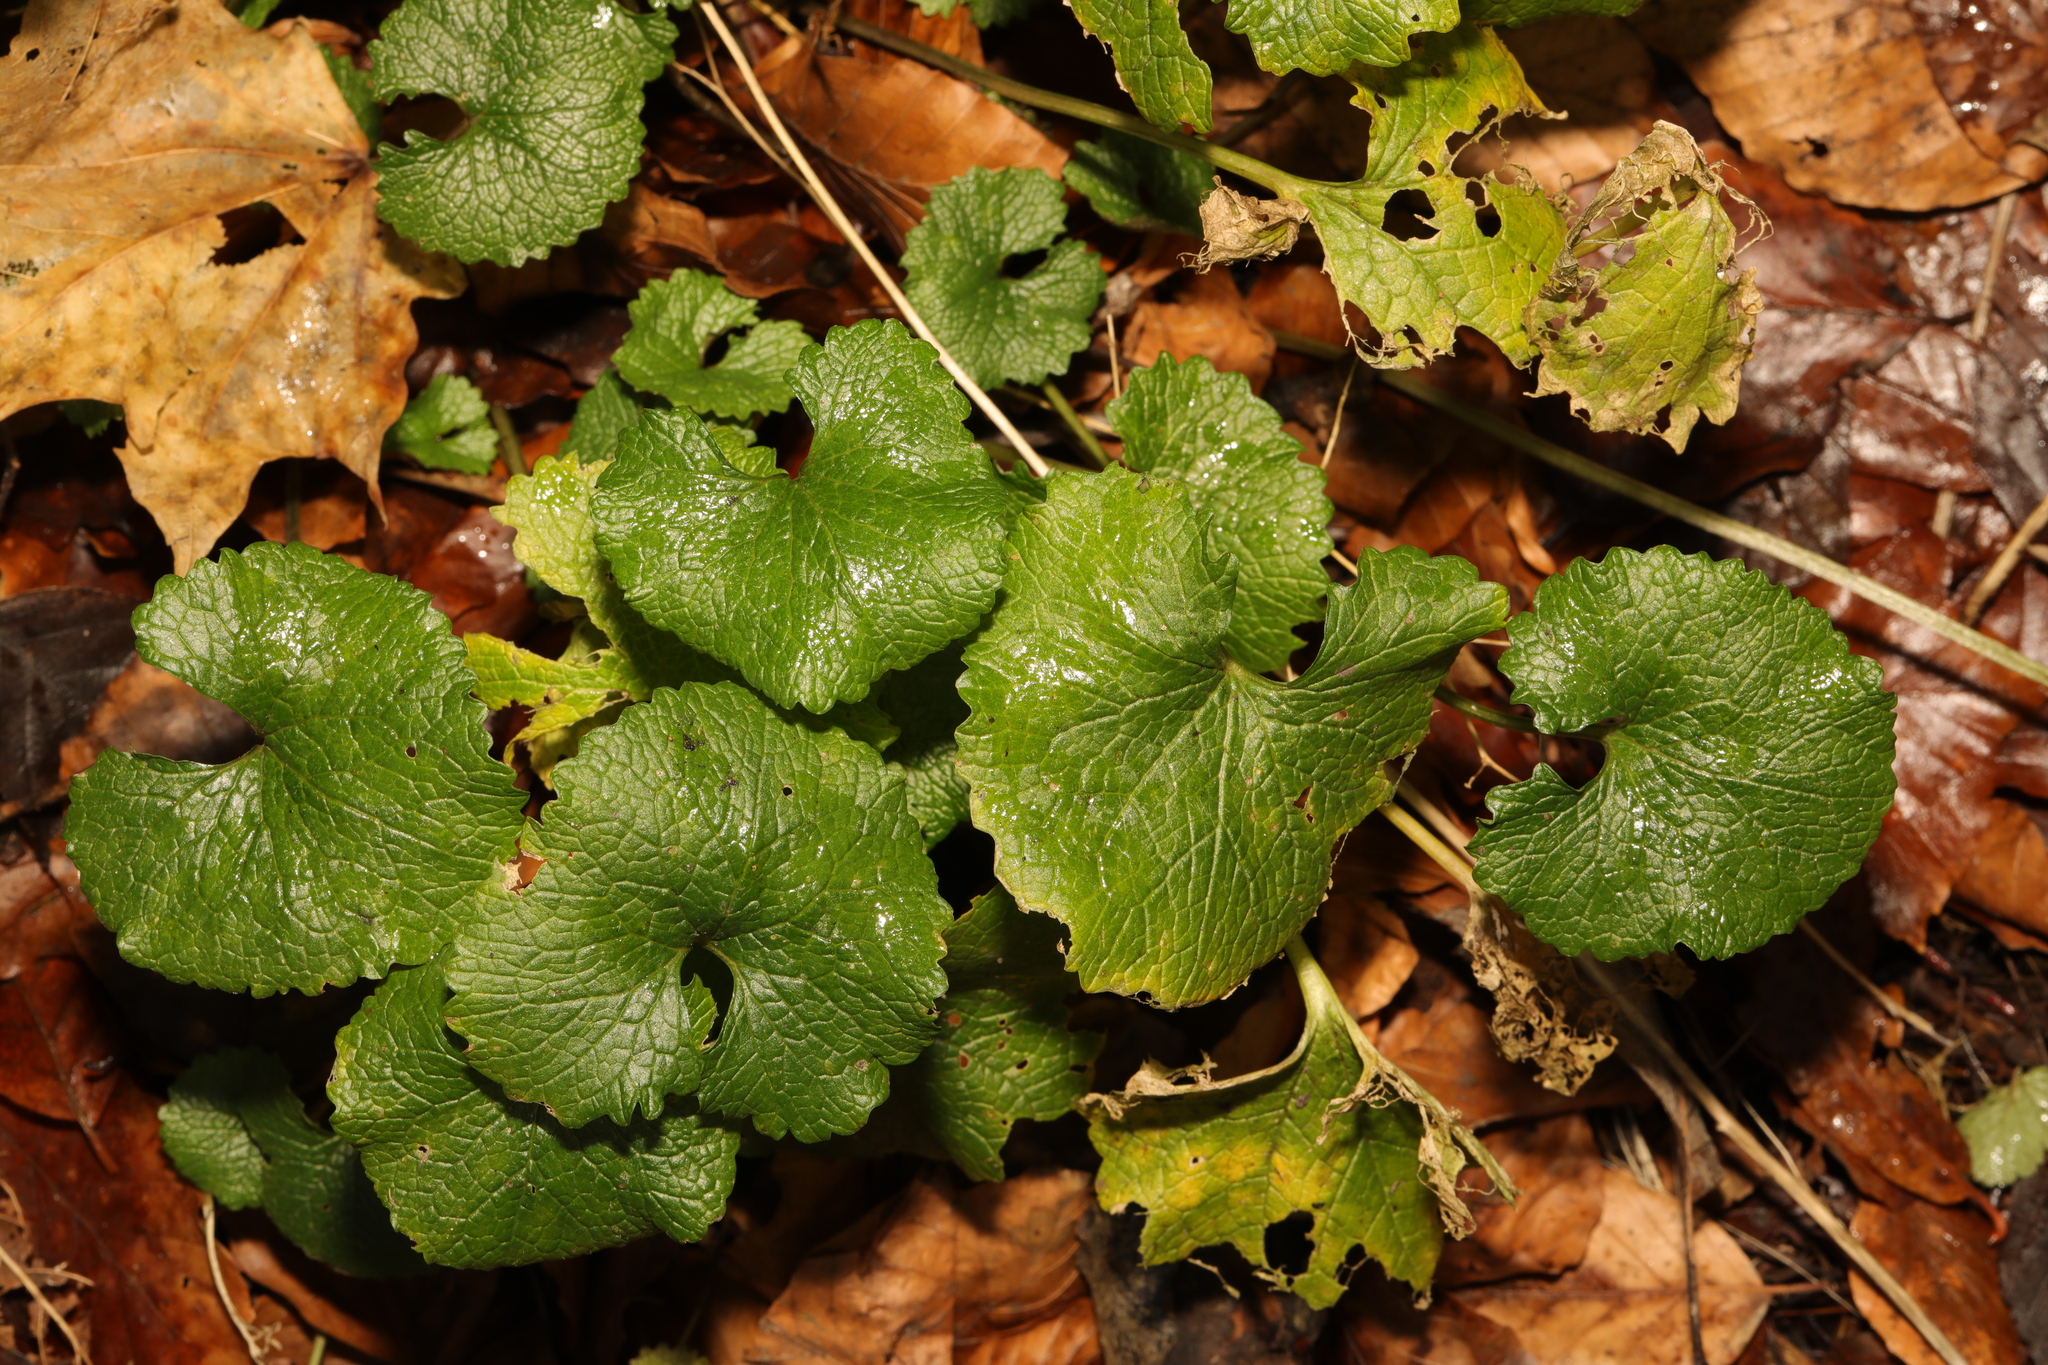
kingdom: Plantae
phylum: Tracheophyta
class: Magnoliopsida
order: Brassicales
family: Brassicaceae
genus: Alliaria
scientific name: Alliaria petiolata
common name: Garlic mustard
